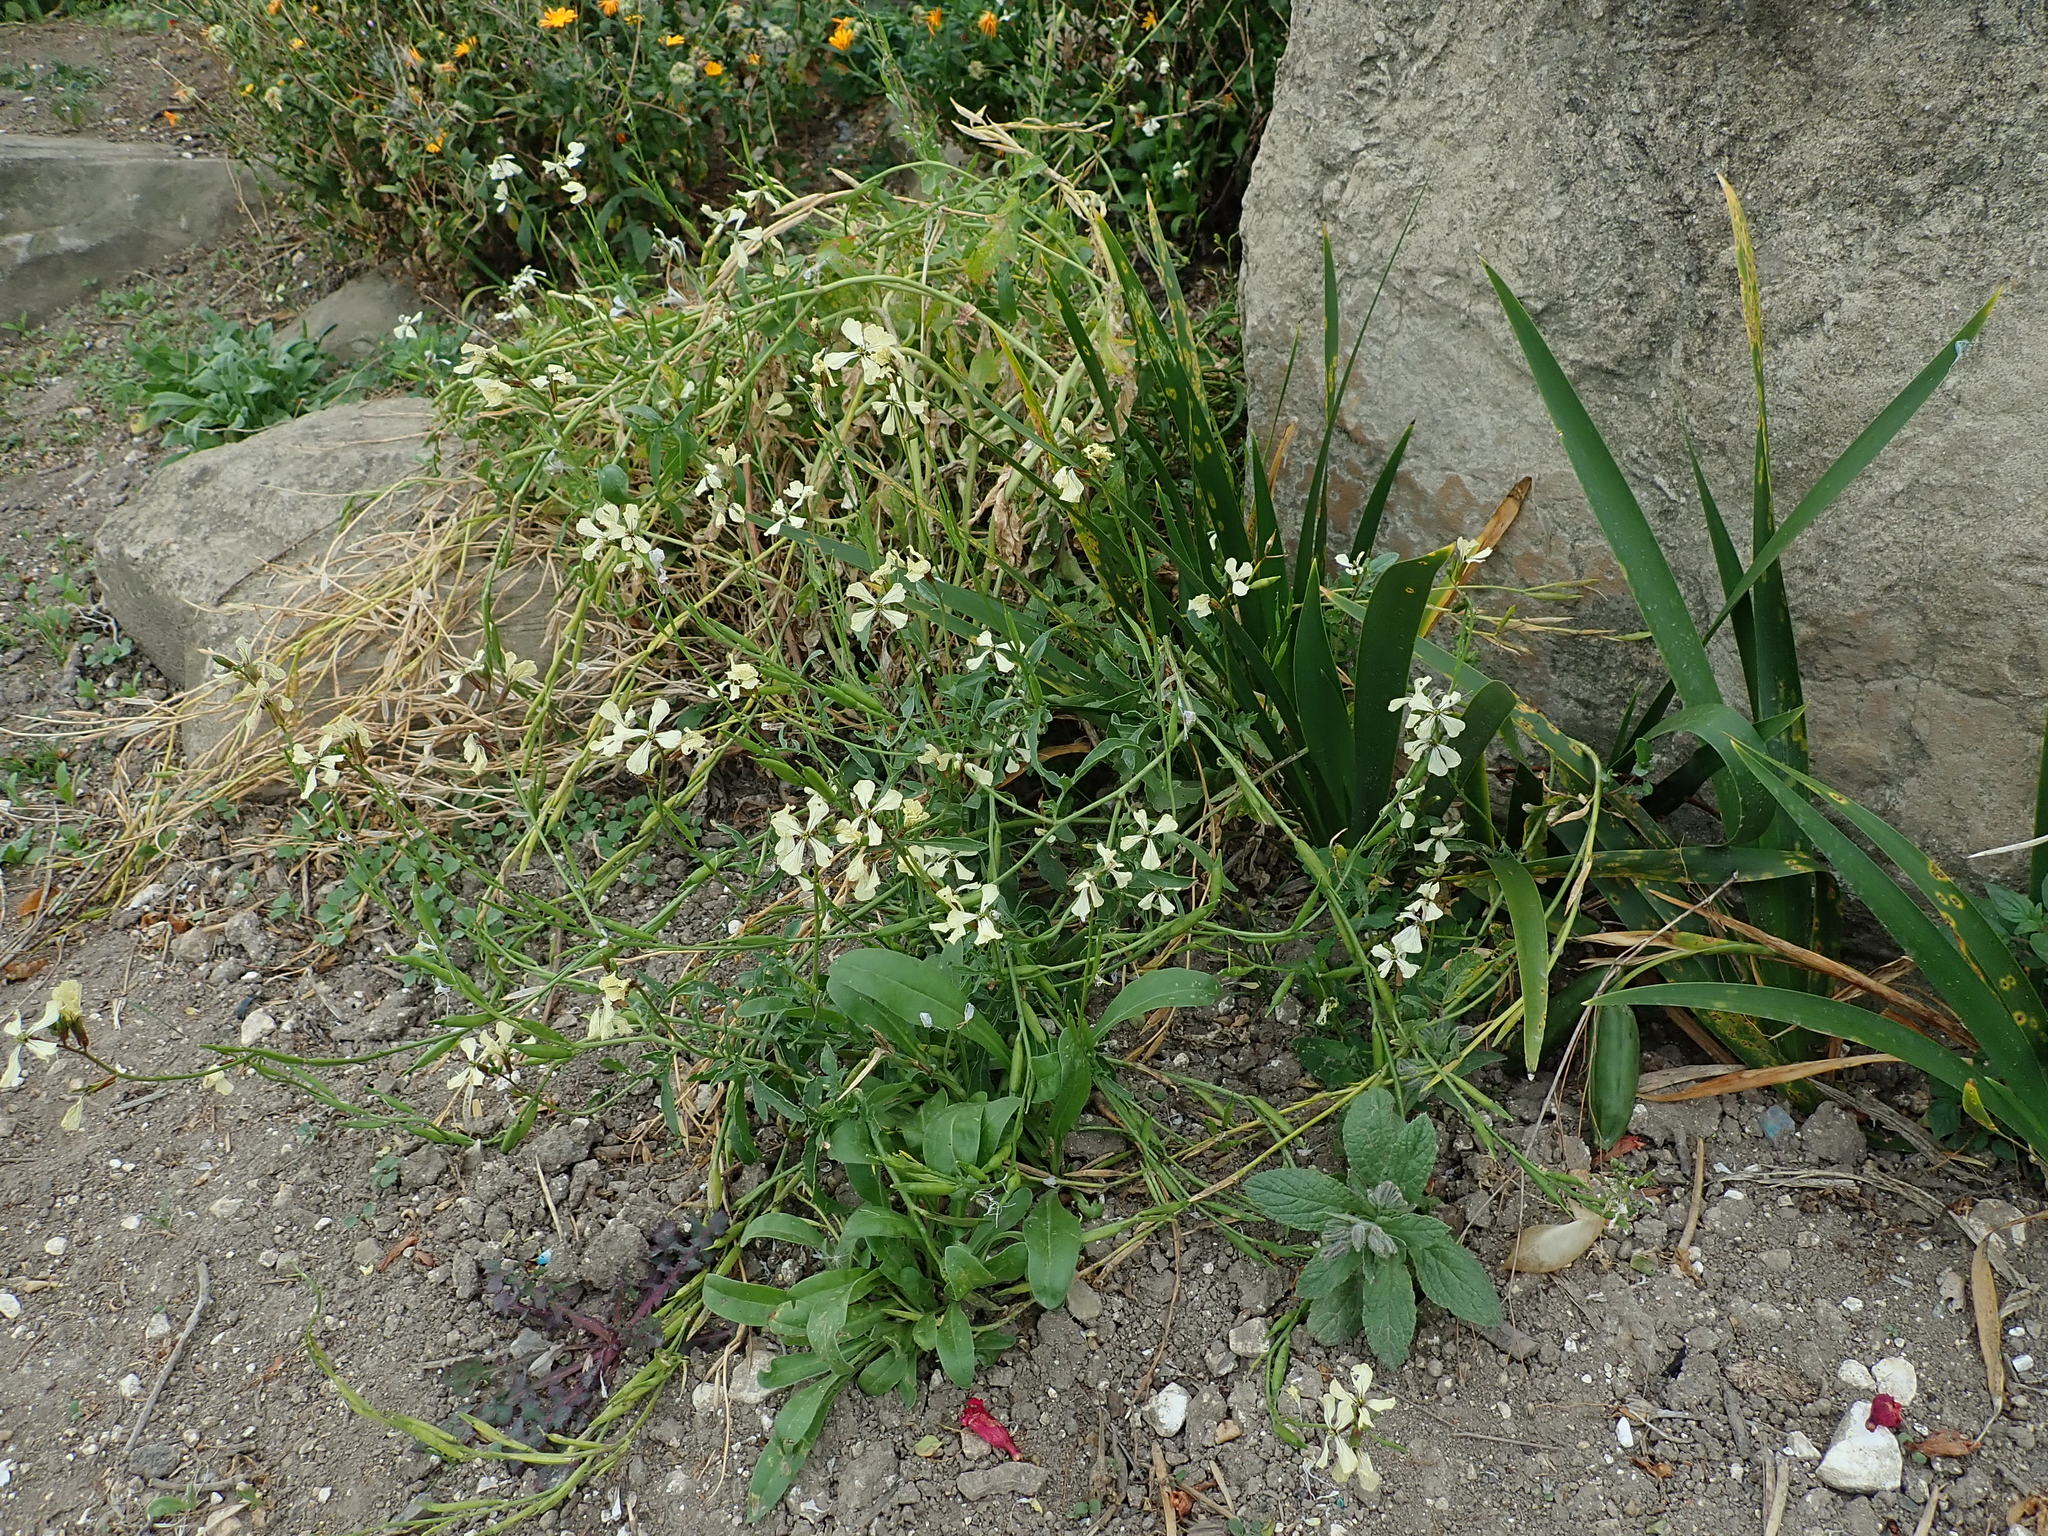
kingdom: Plantae
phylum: Tracheophyta
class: Magnoliopsida
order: Brassicales
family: Brassicaceae
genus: Raphanus
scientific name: Raphanus raphanistrum
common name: Wild radish
